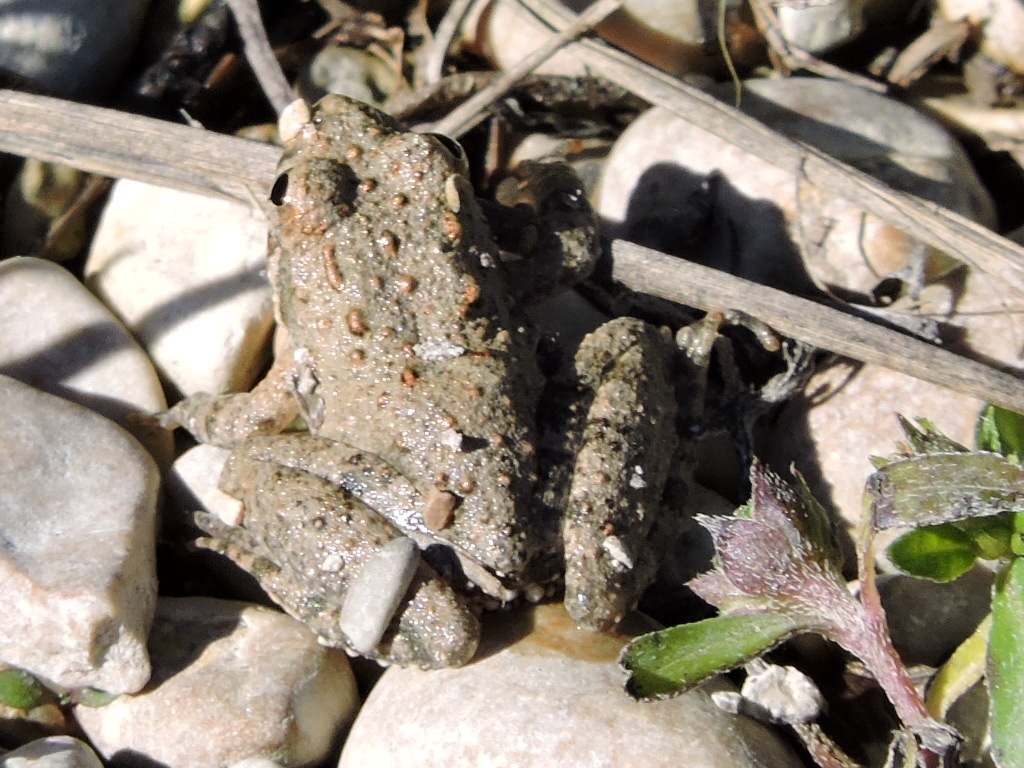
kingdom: Animalia
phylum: Chordata
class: Amphibia
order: Anura
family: Hylidae
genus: Acris
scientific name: Acris blanchardi
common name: Blanchard's cricket frog
